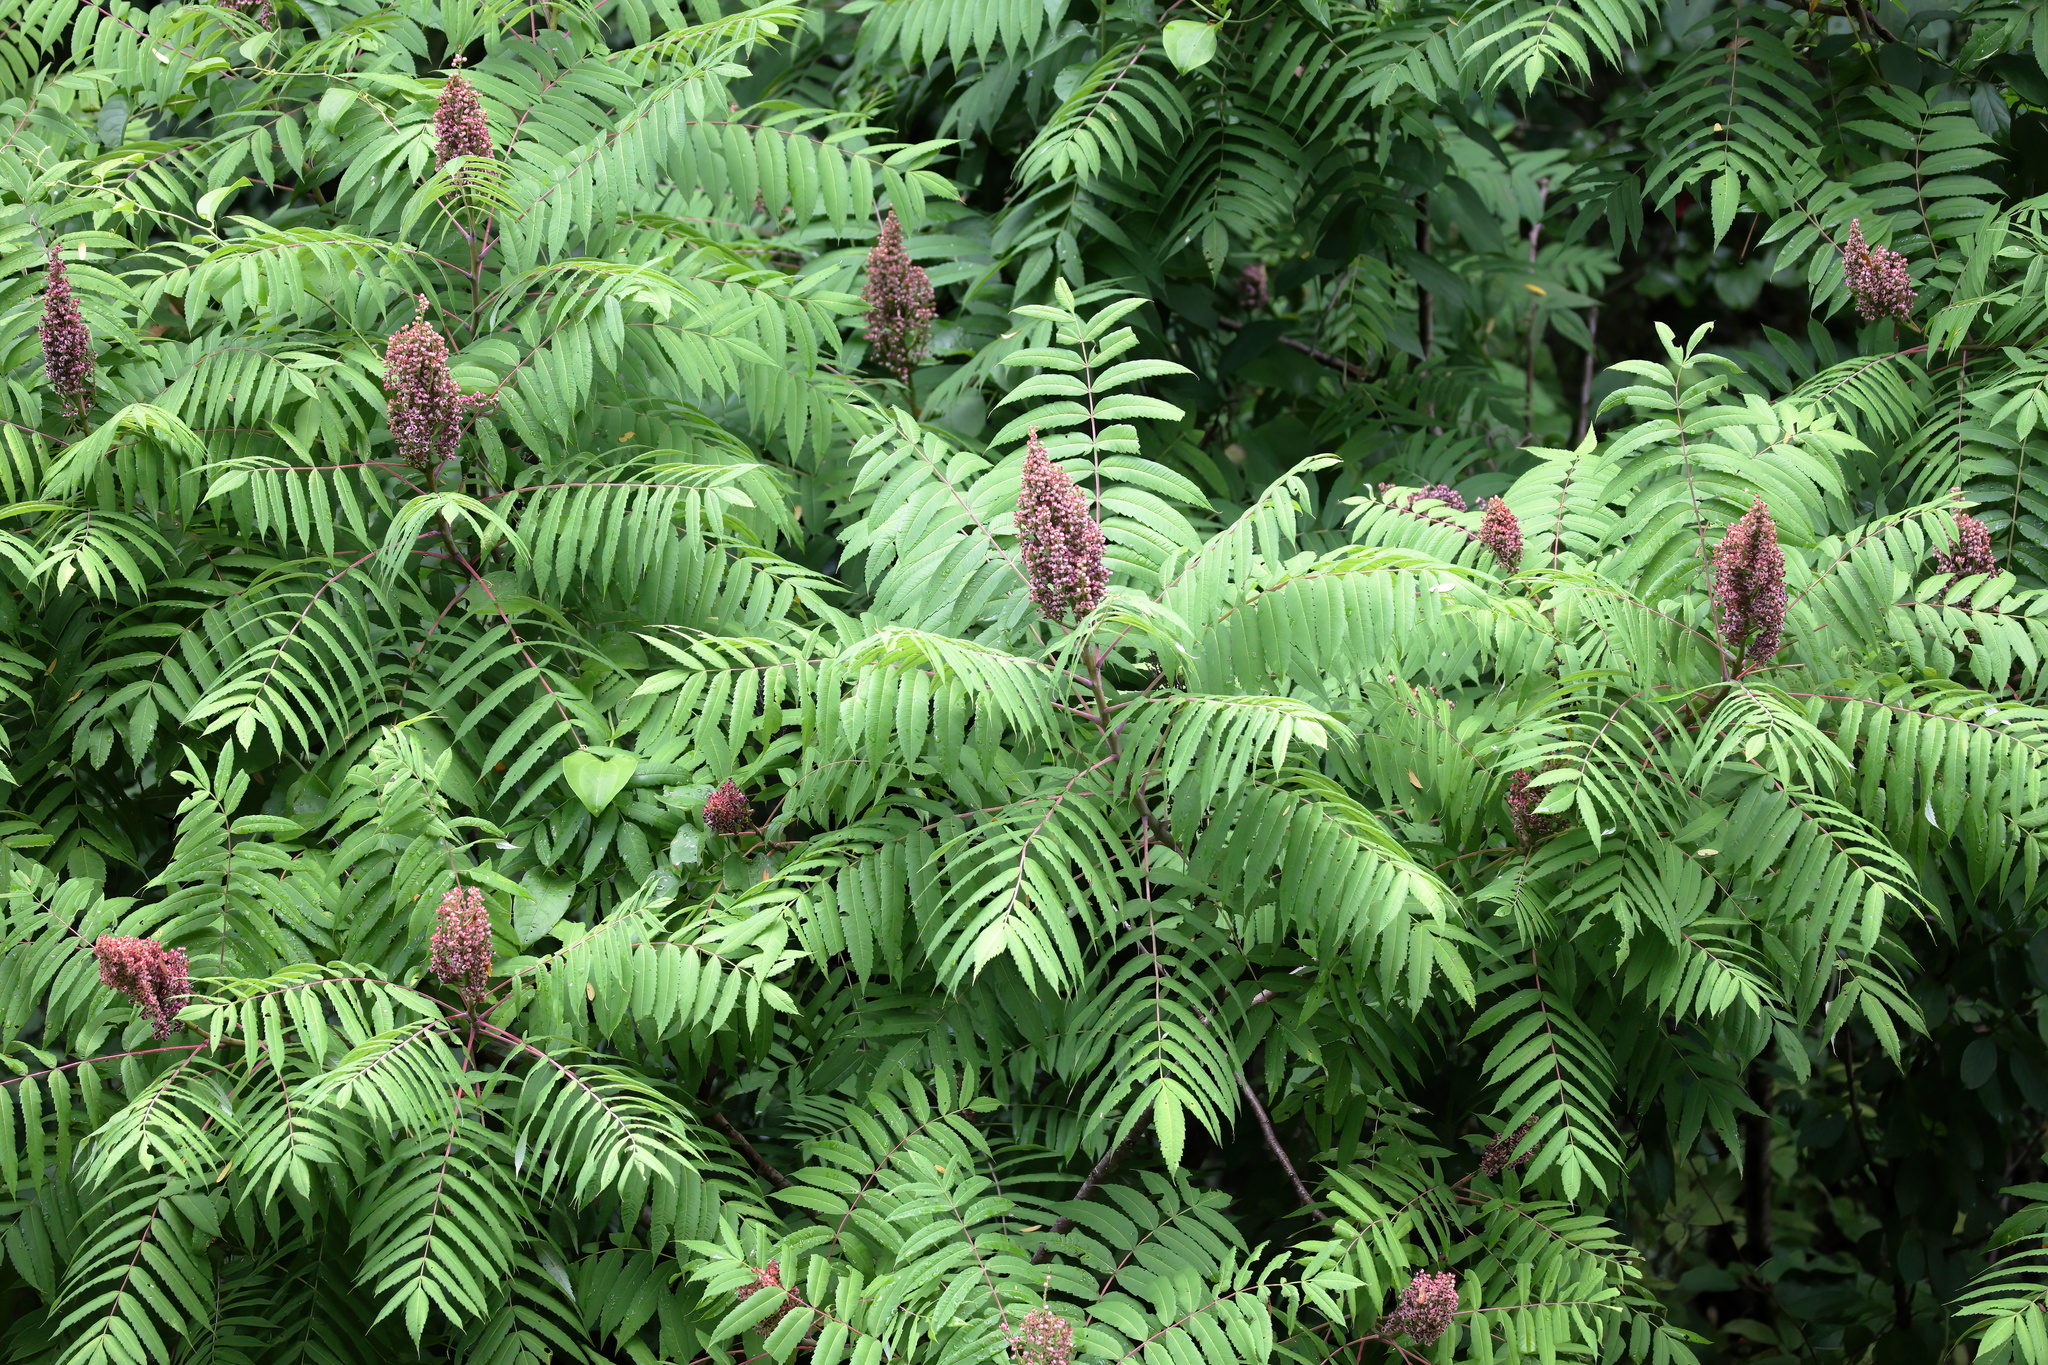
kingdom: Plantae
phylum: Tracheophyta
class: Magnoliopsida
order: Sapindales
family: Anacardiaceae
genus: Rhus
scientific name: Rhus glabra
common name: Scarlet sumac
